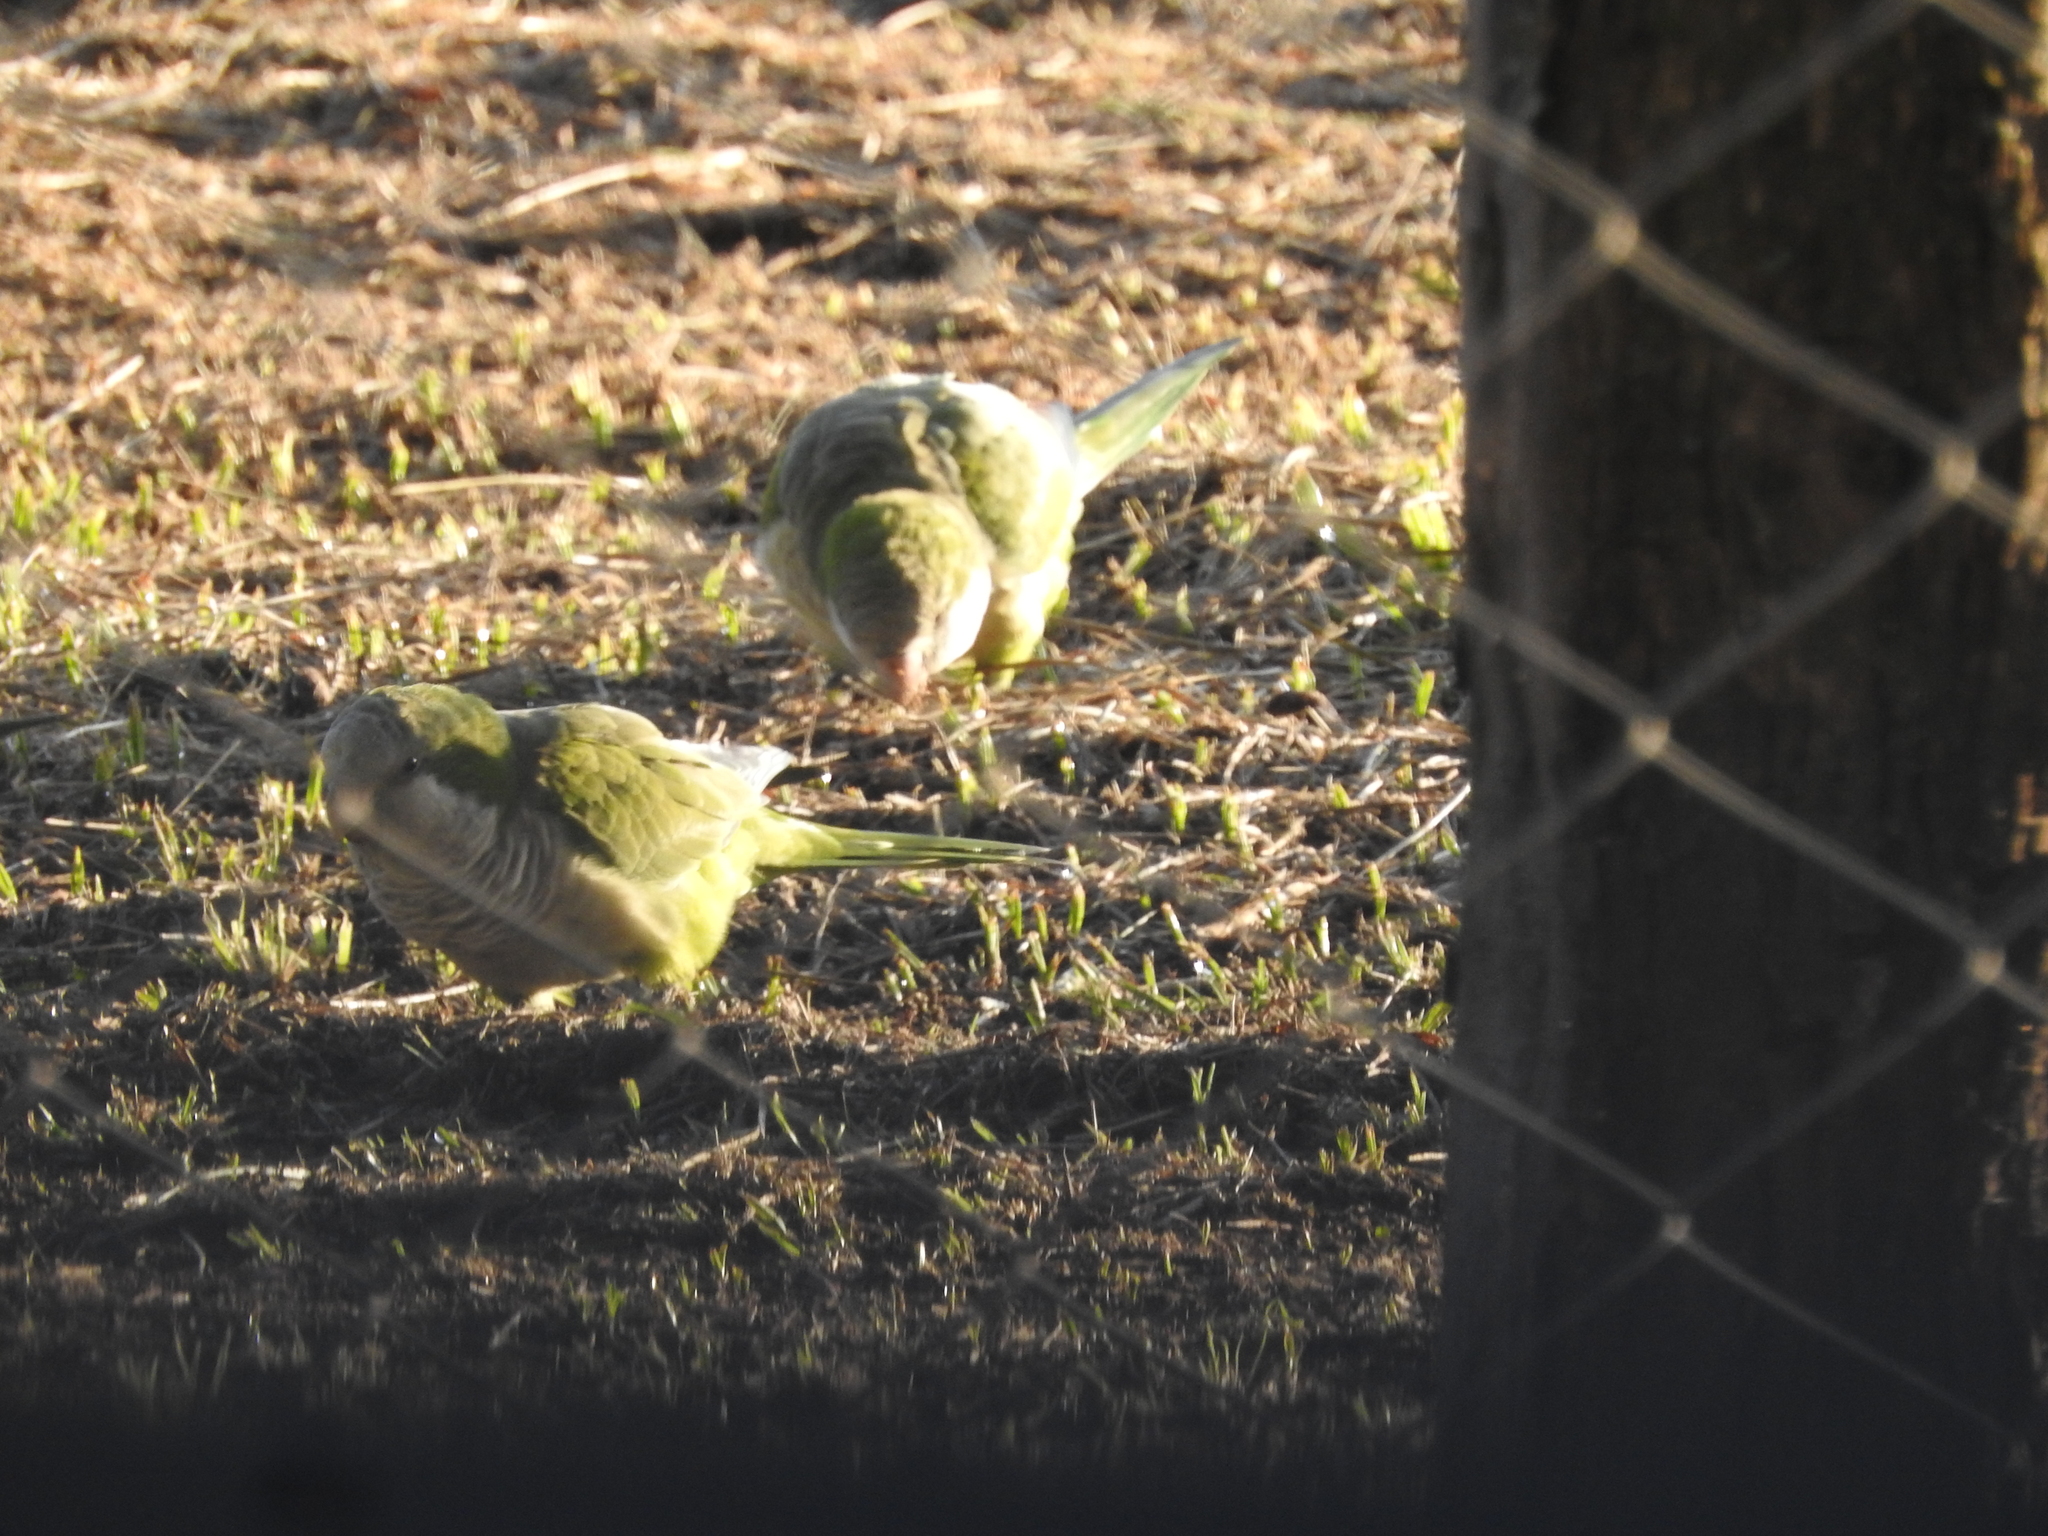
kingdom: Animalia
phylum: Chordata
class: Aves
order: Psittaciformes
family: Psittacidae
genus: Myiopsitta
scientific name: Myiopsitta monachus
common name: Monk parakeet
